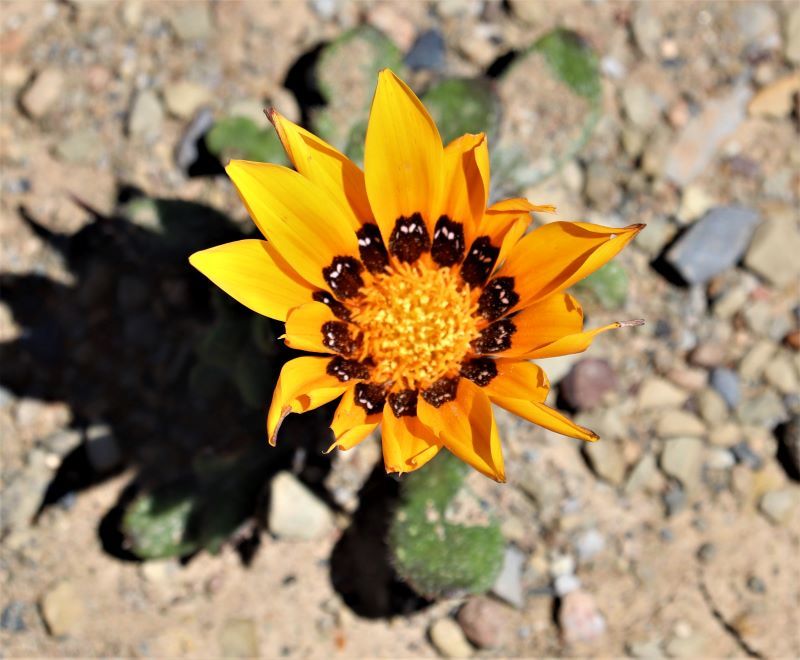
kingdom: Plantae
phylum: Tracheophyta
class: Magnoliopsida
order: Asterales
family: Asteraceae
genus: Gazania
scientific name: Gazania heterochaeta
